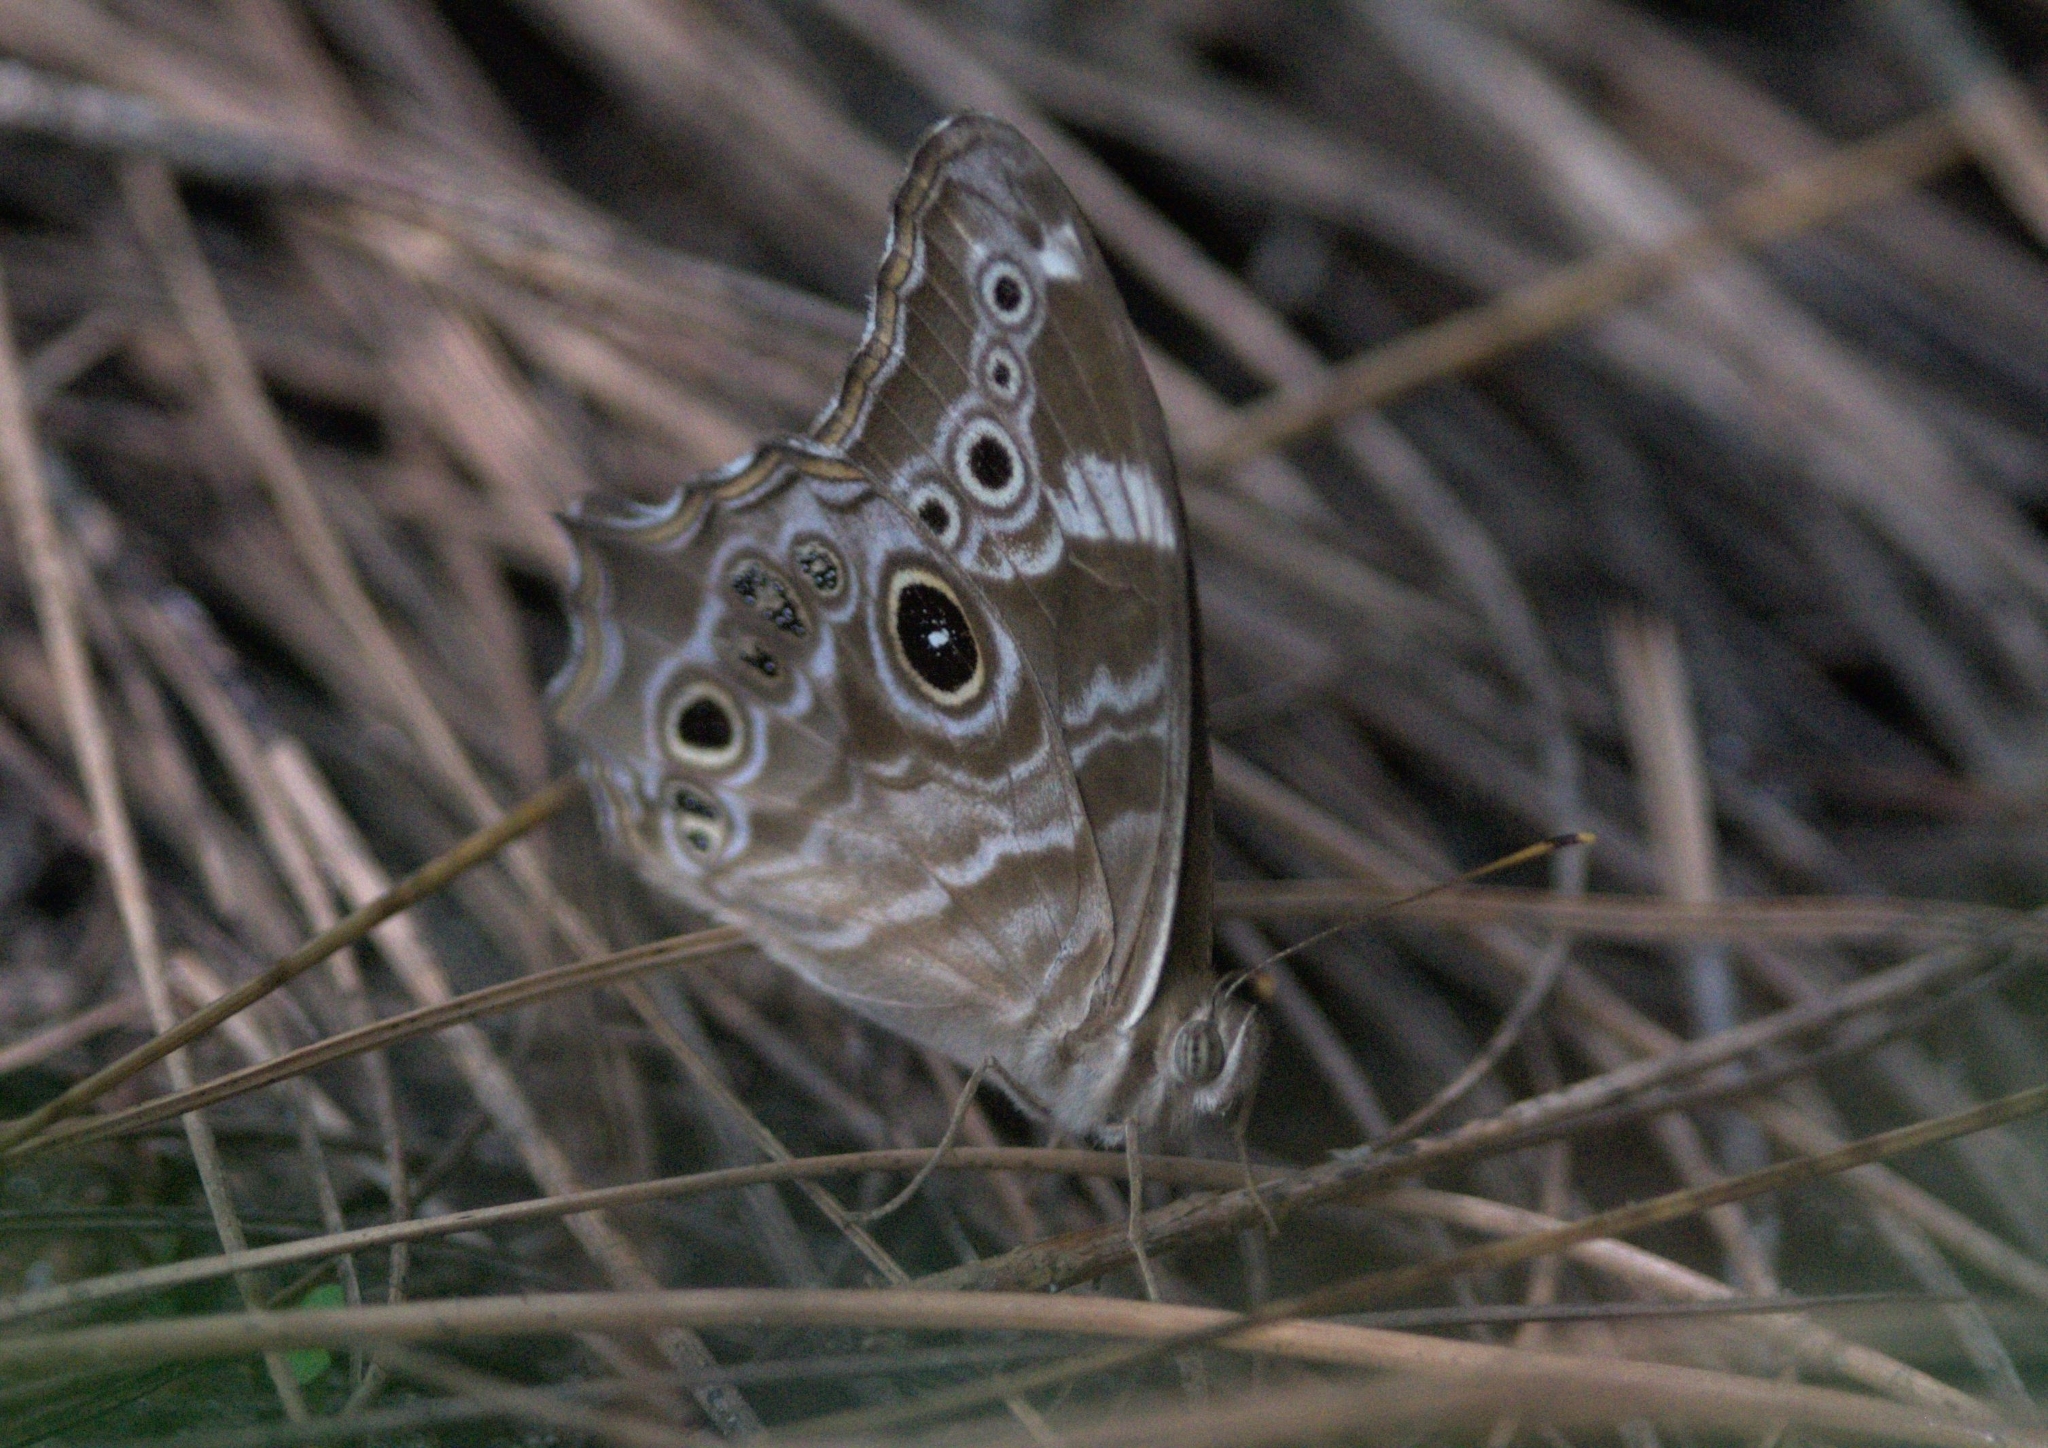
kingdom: Animalia
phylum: Arthropoda
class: Insecta
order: Lepidoptera
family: Nymphalidae
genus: Lethe
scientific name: Lethe rohria
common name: Common treebrown
